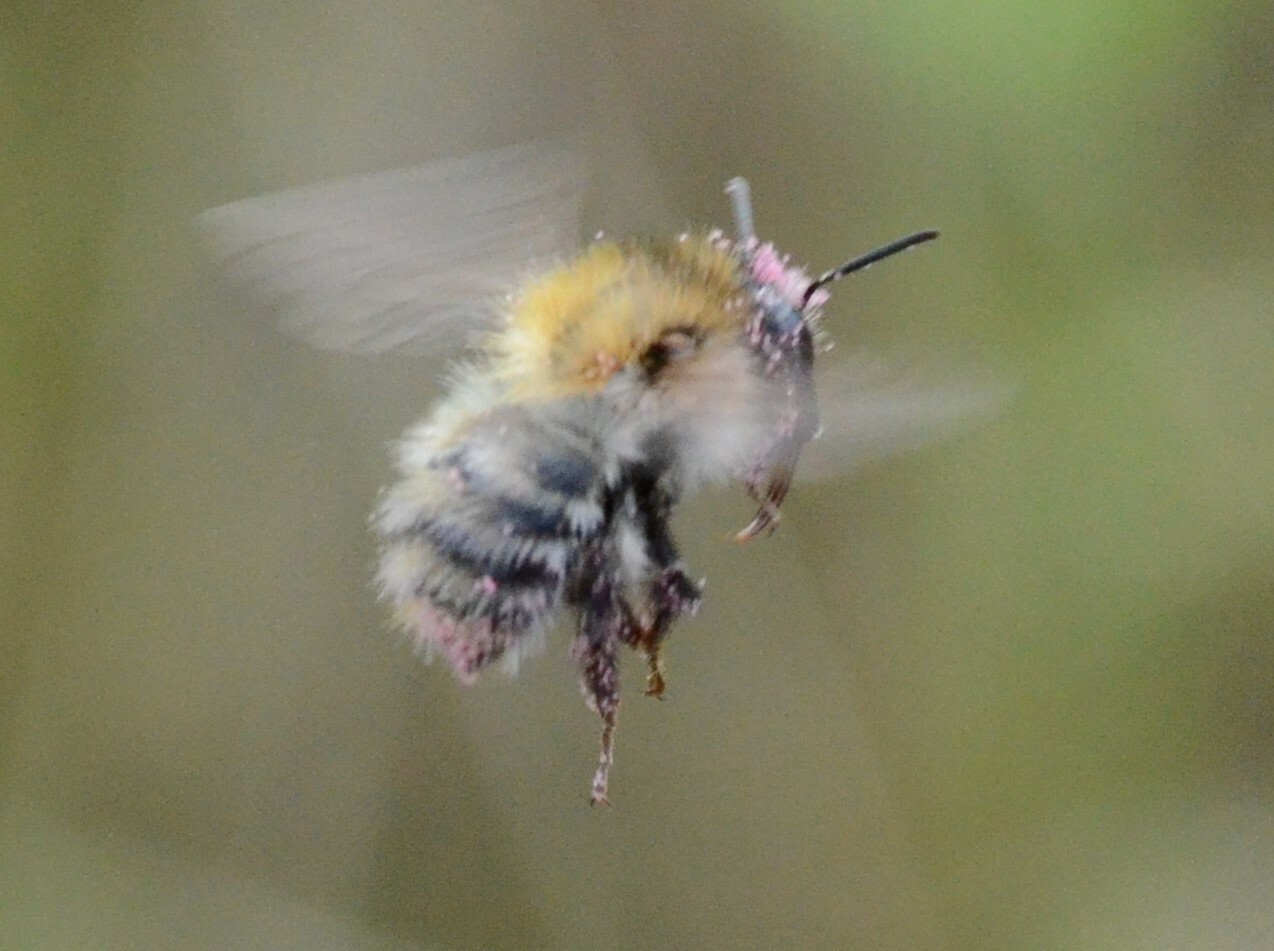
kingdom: Animalia
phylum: Arthropoda
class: Insecta
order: Hymenoptera
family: Apidae
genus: Bombus
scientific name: Bombus pascuorum
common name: Common carder bee
